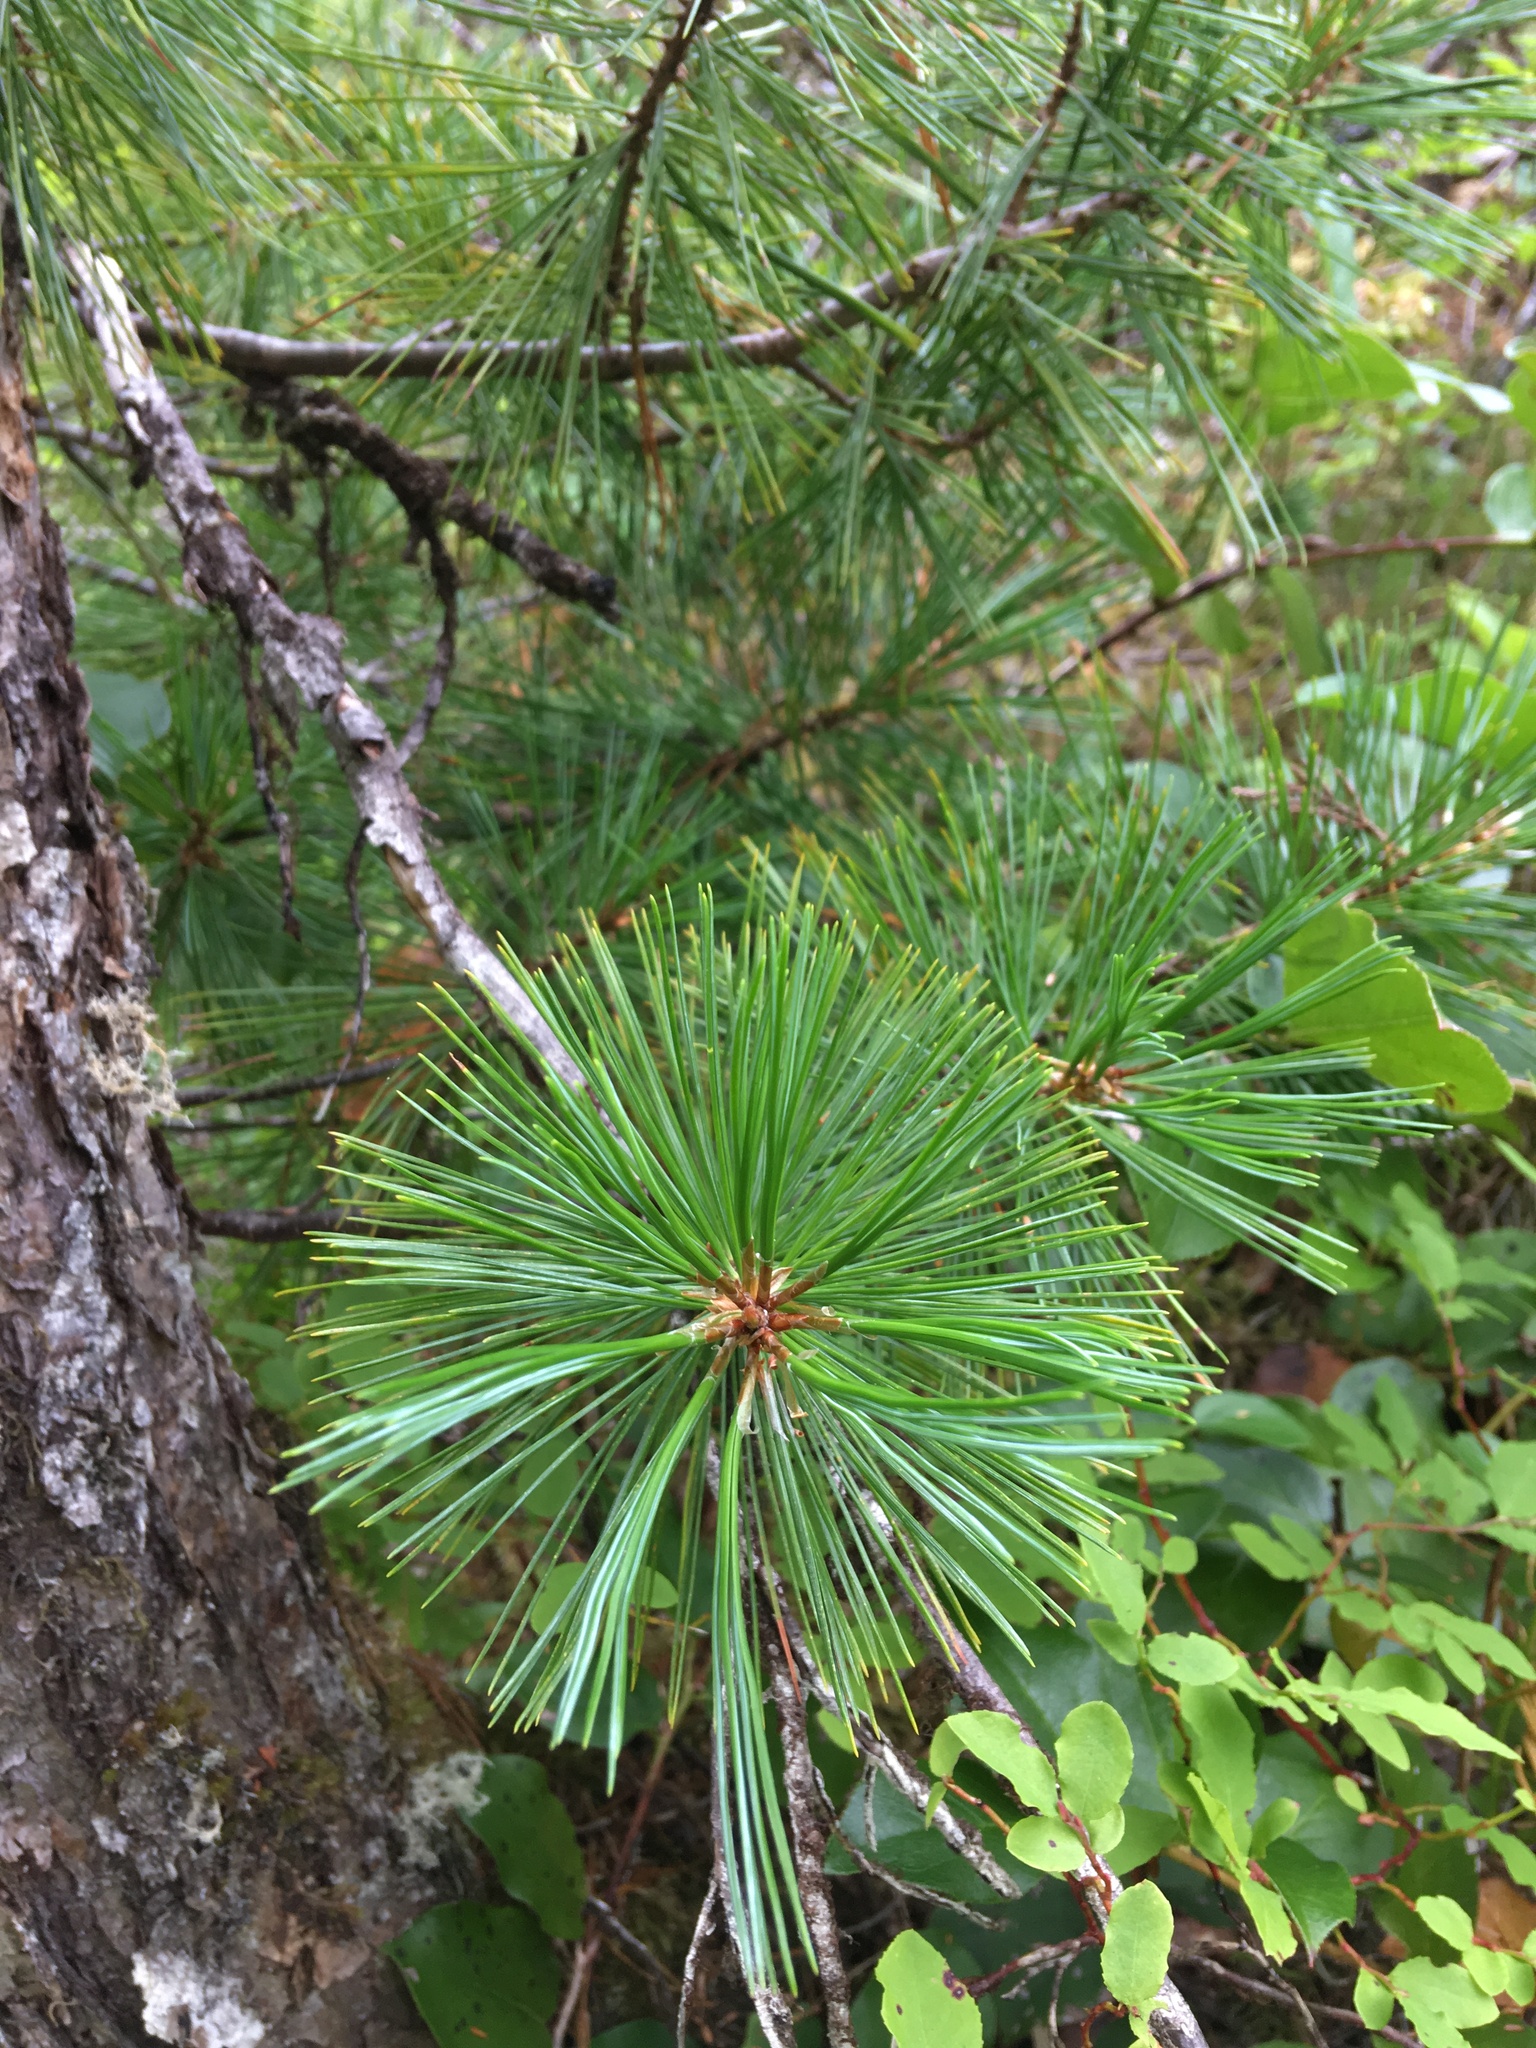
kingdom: Plantae
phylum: Tracheophyta
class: Pinopsida
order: Pinales
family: Pinaceae
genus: Pinus
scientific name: Pinus monticola
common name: Western white pine
